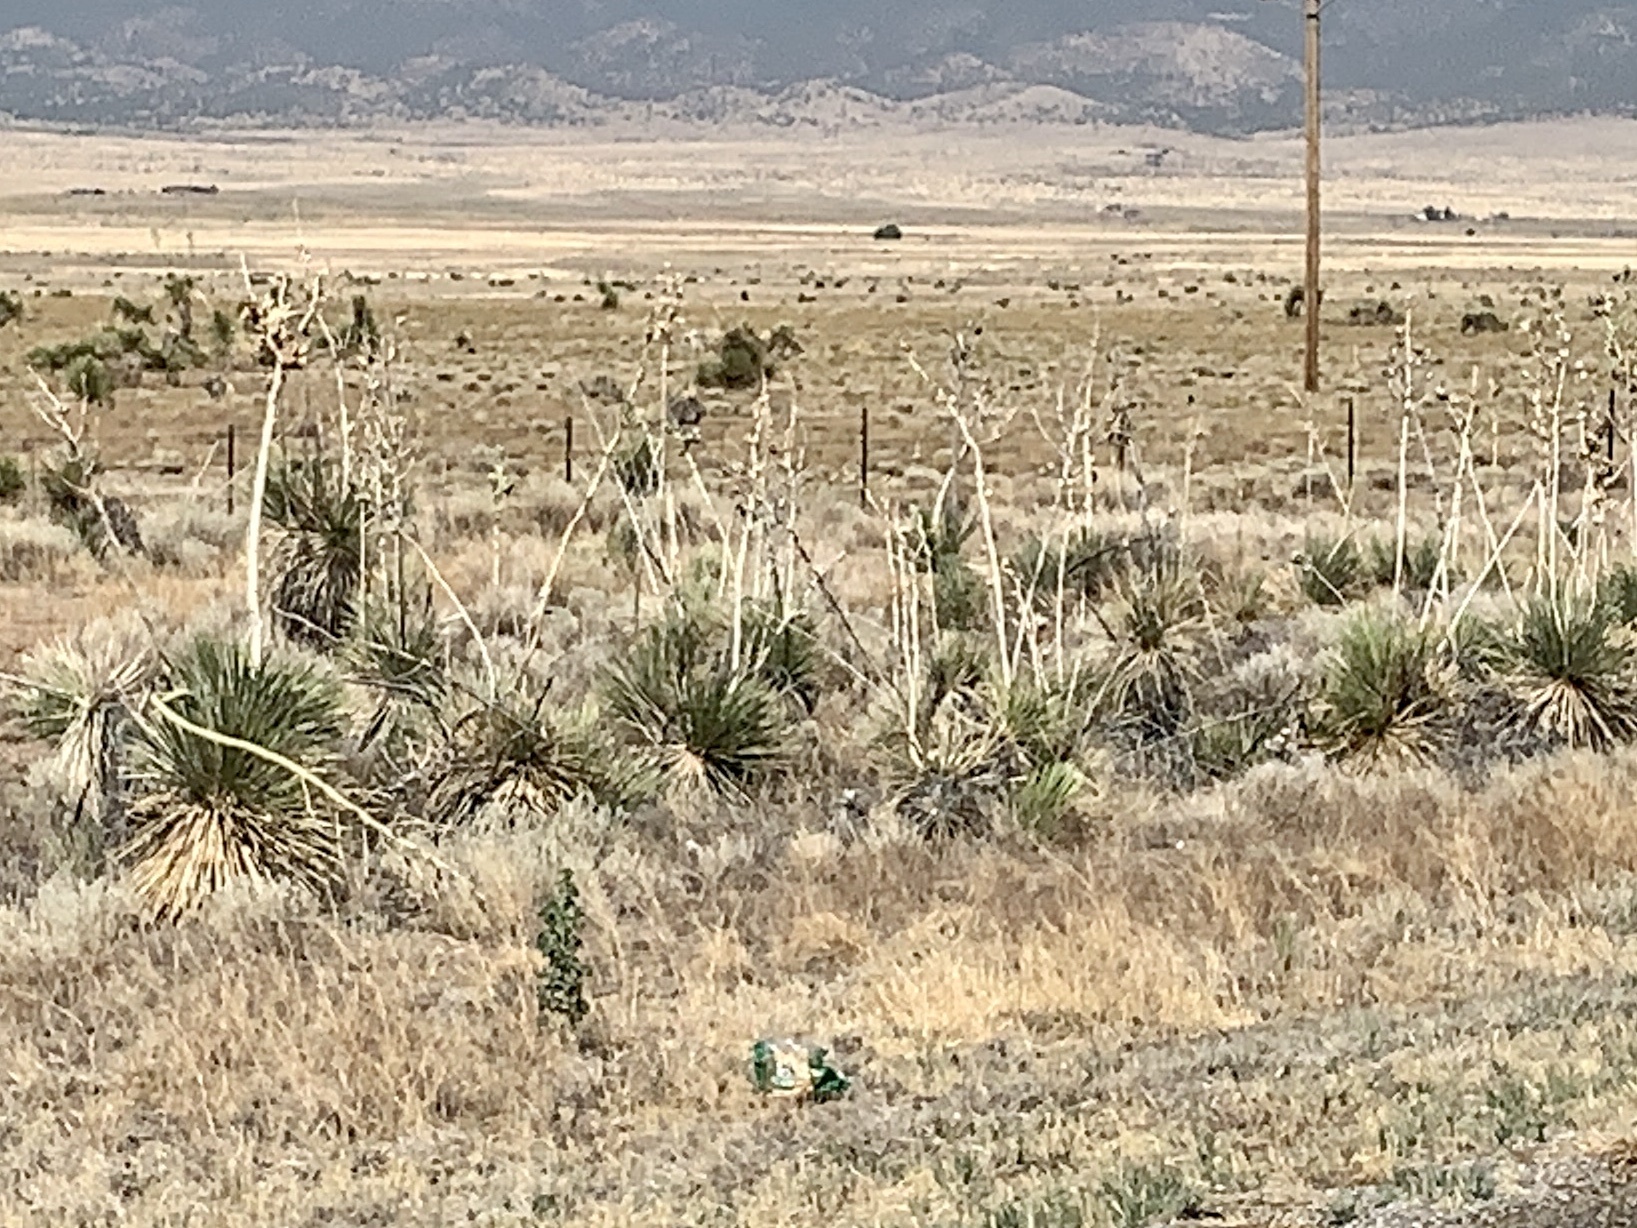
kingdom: Plantae
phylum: Tracheophyta
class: Liliopsida
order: Asparagales
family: Asparagaceae
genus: Yucca
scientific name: Yucca elata
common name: Palmella
